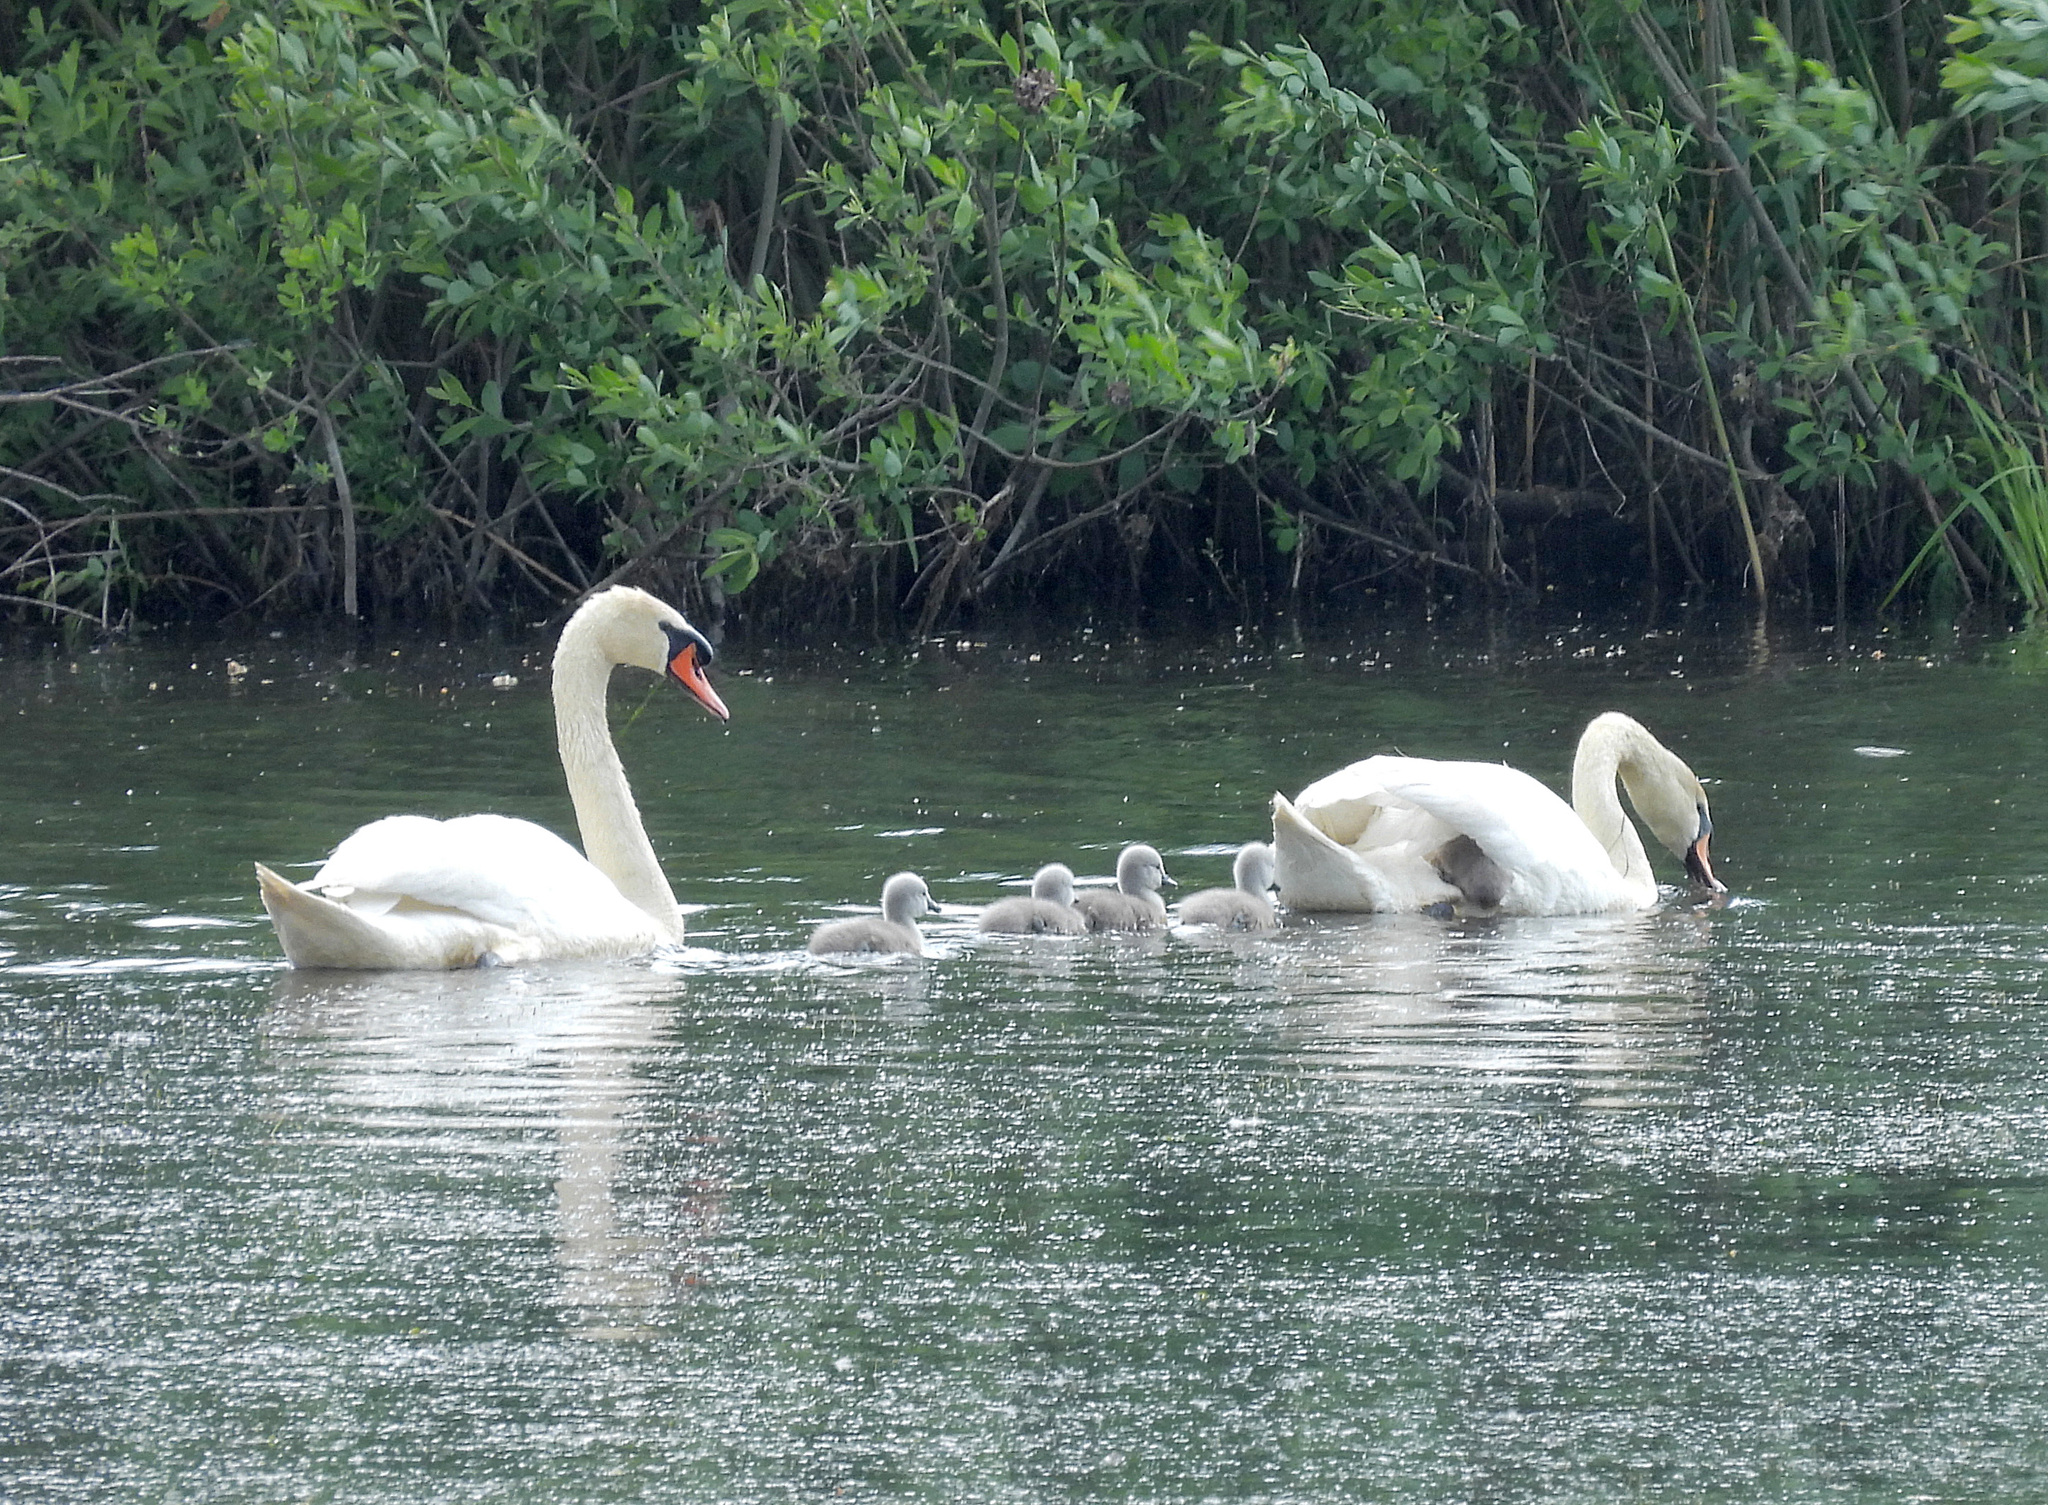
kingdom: Animalia
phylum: Chordata
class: Aves
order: Anseriformes
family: Anatidae
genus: Cygnus
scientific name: Cygnus olor
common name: Mute swan
